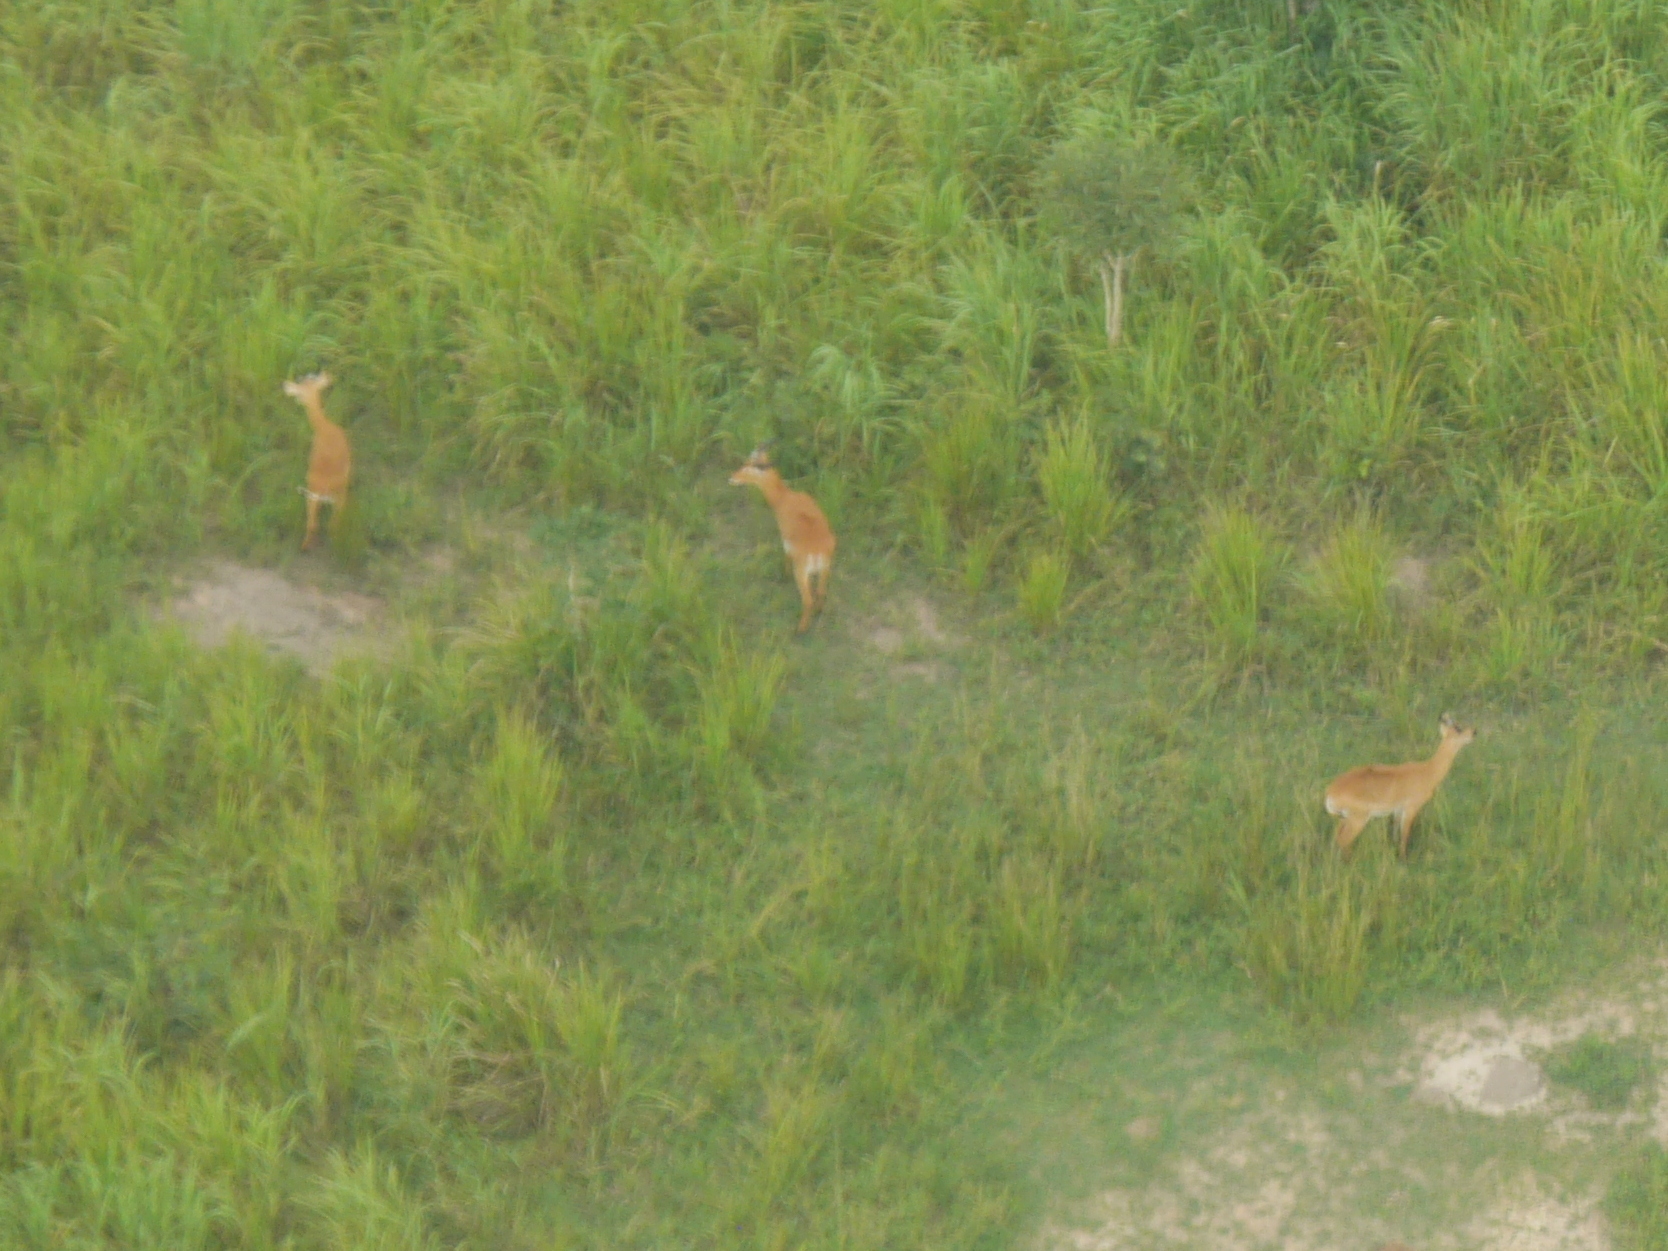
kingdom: Animalia
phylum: Chordata
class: Mammalia
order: Artiodactyla
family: Bovidae
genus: Kobus
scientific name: Kobus kob
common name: Kob
